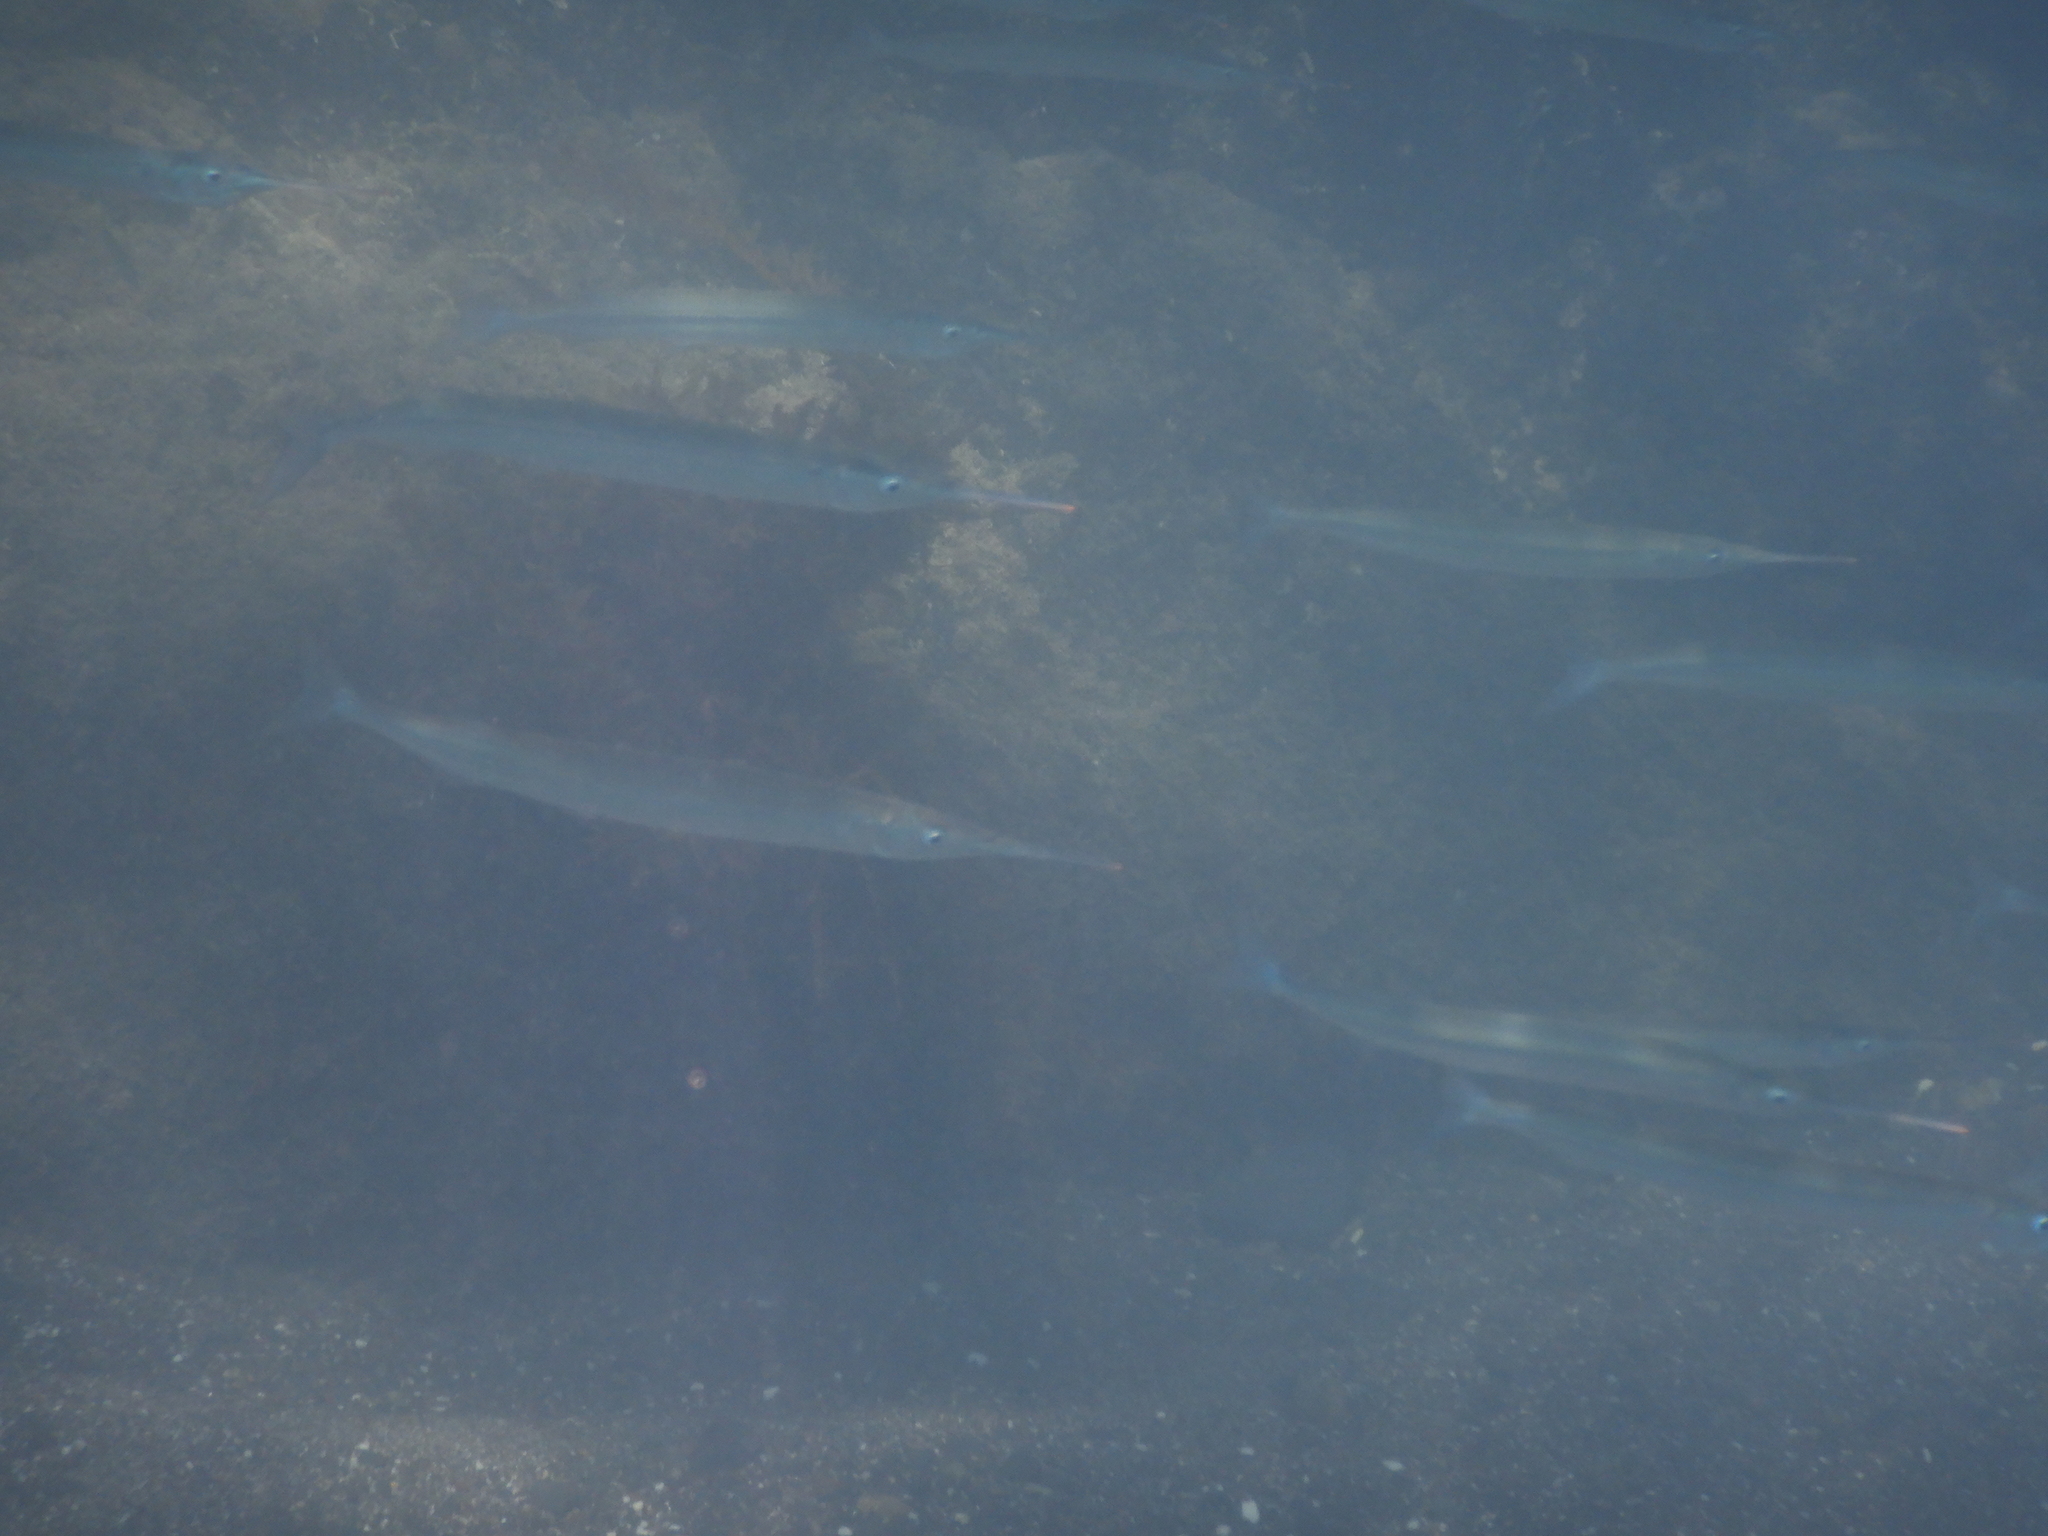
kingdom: Animalia
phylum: Chordata
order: Beloniformes
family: Hemiramphidae
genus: Hyporhamphus
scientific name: Hyporhamphus ihi
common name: Garfish
